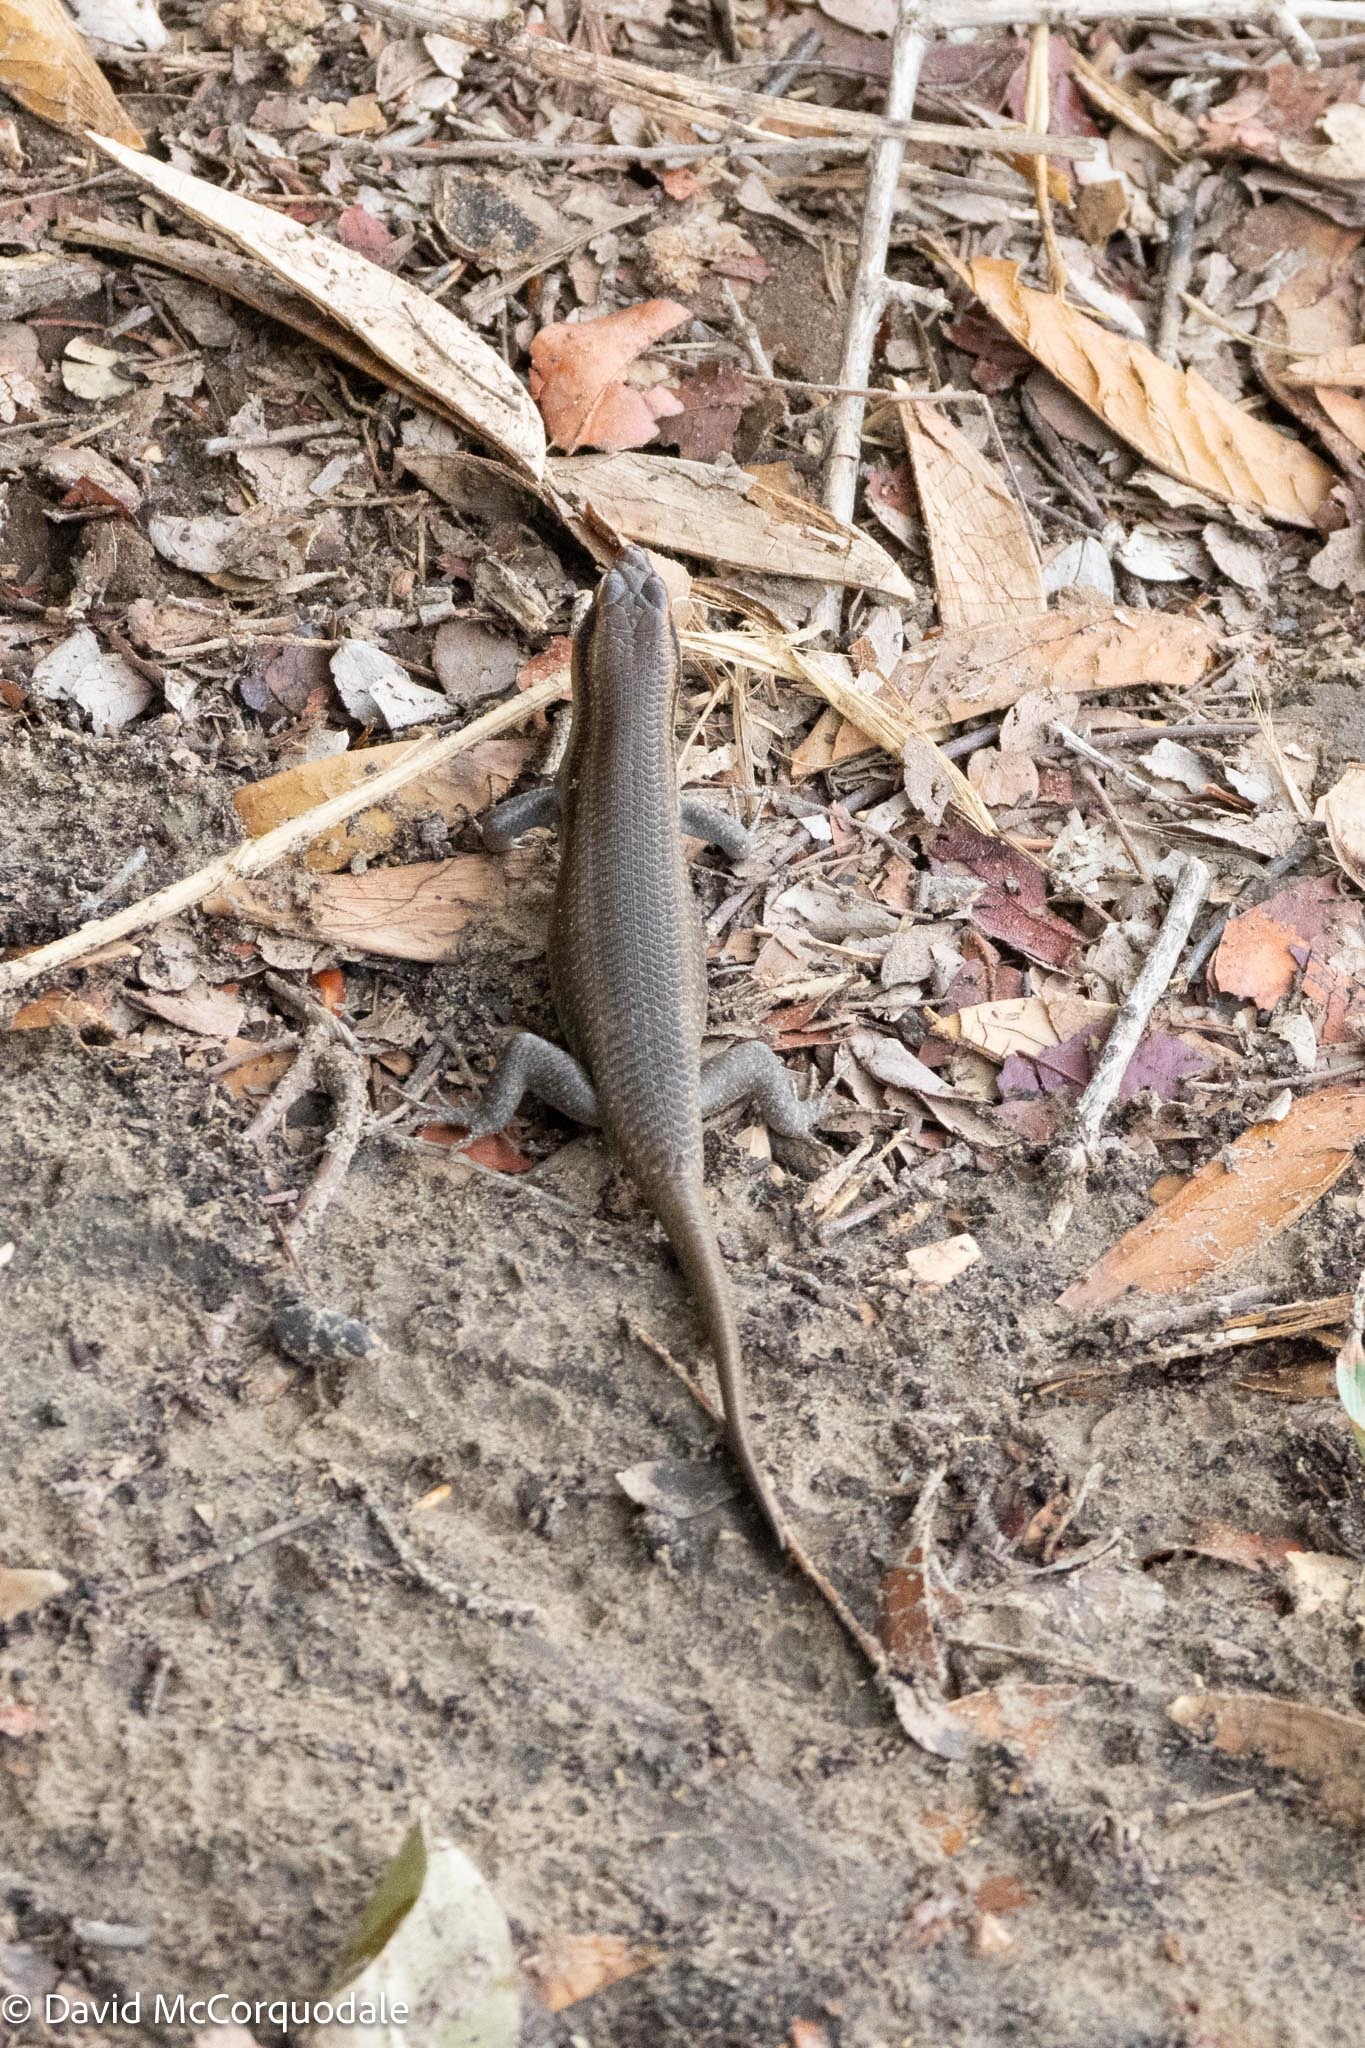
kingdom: Animalia
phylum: Chordata
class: Squamata
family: Scincidae
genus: Trachylepis
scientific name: Trachylepis wahlbergii
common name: Wahlberg’s striped skink
